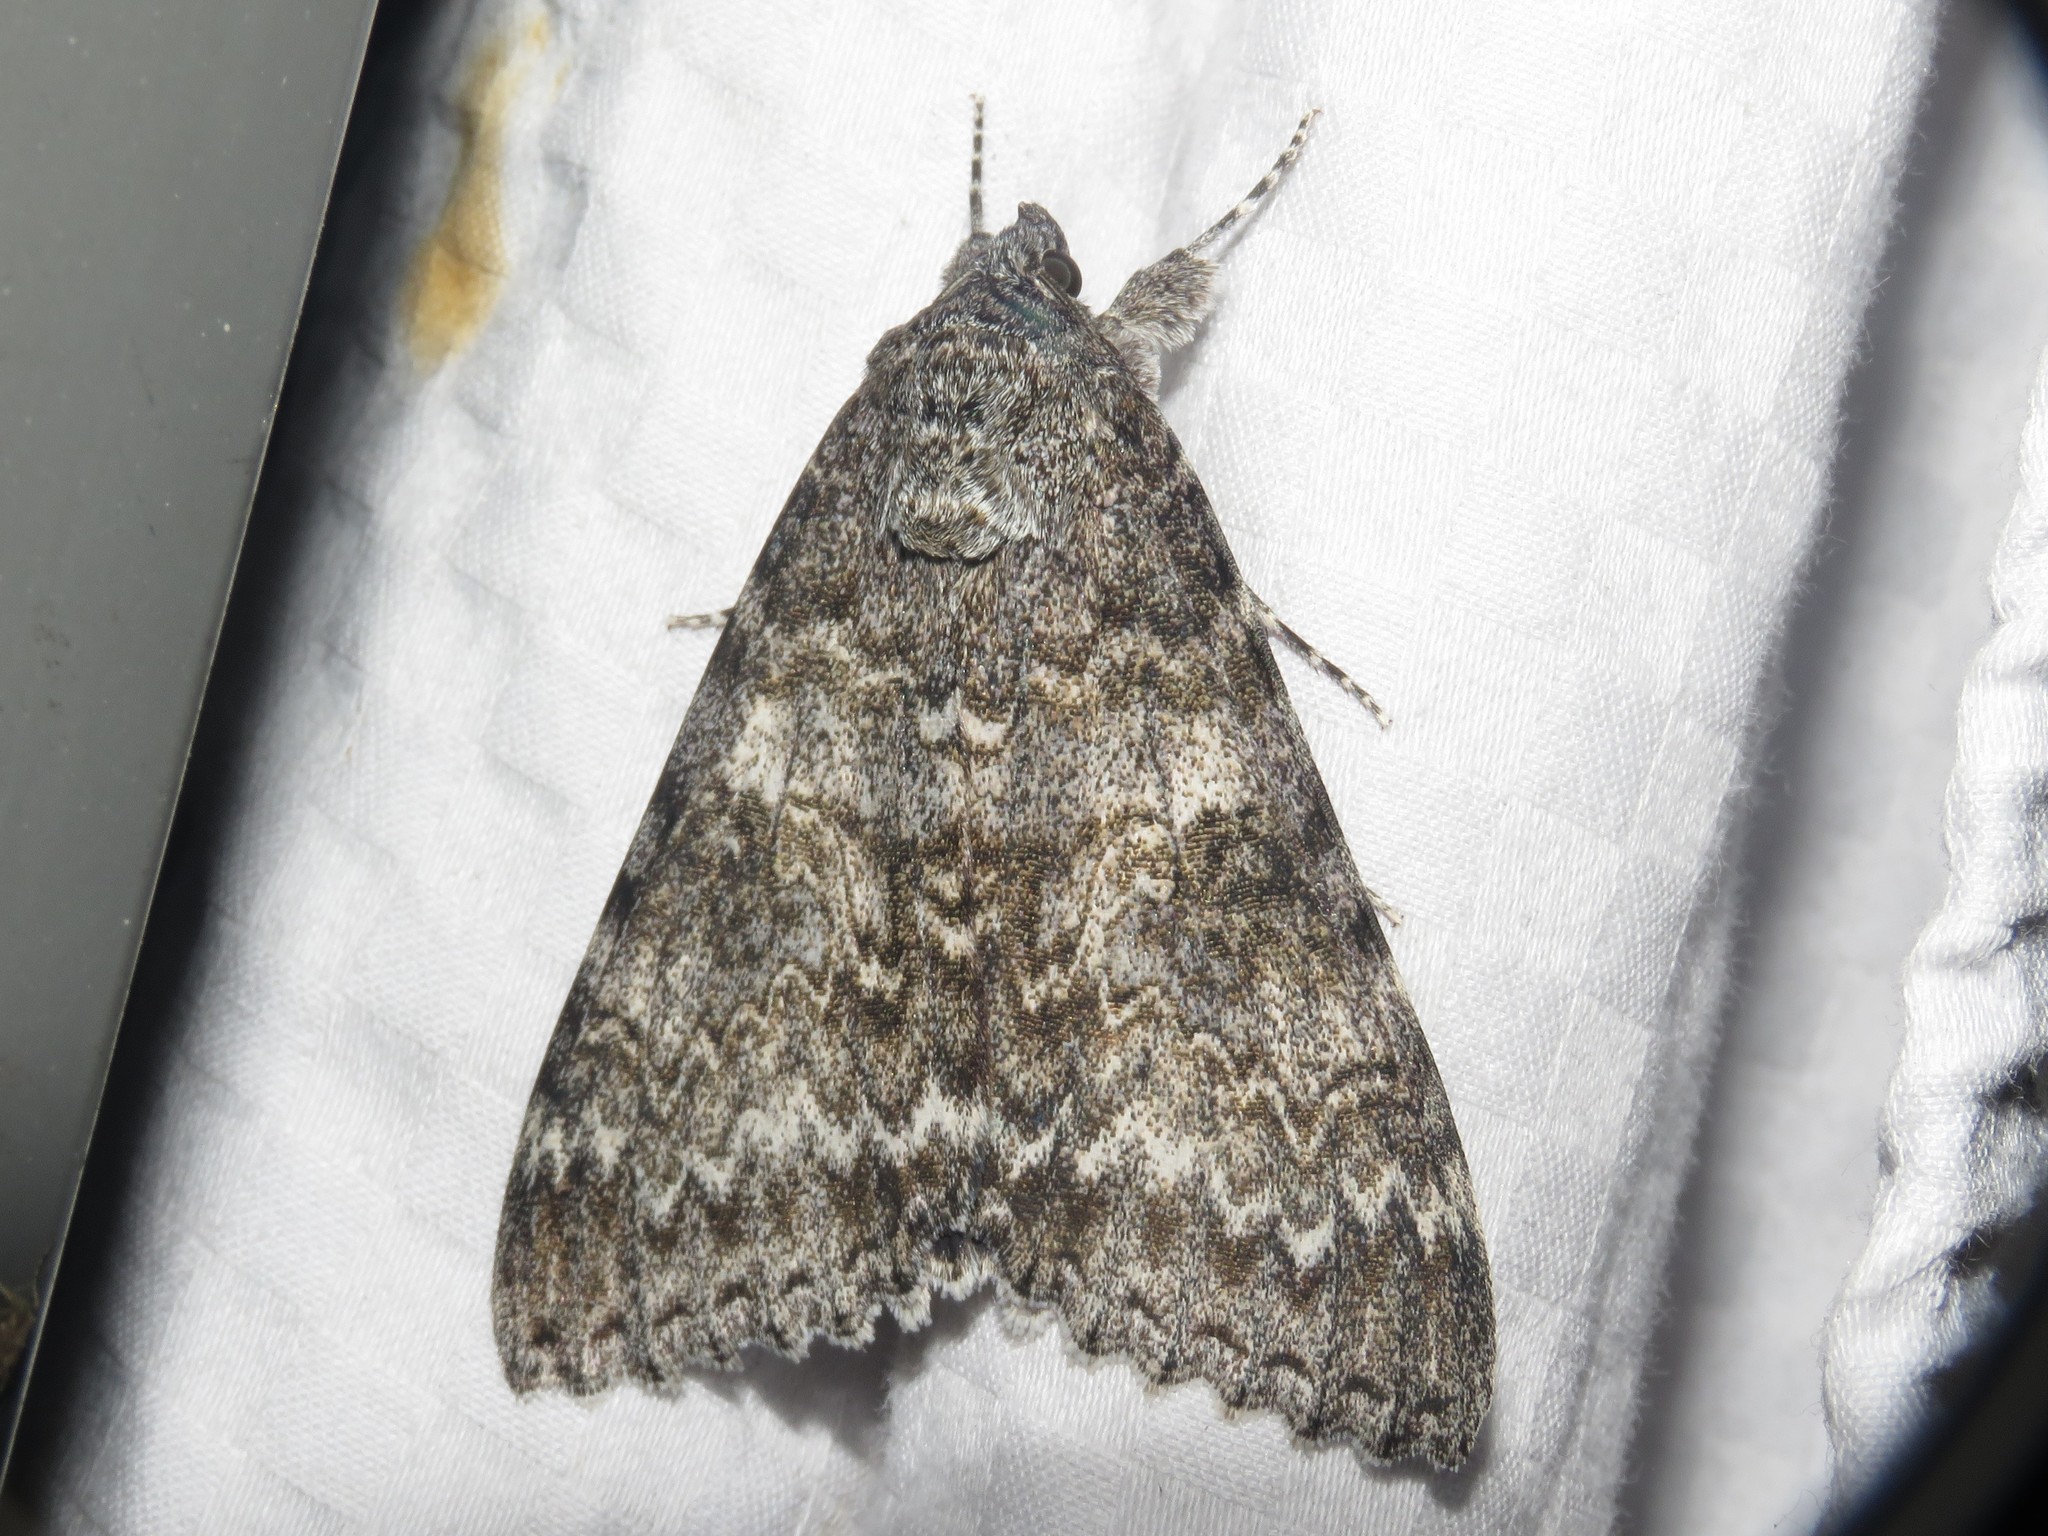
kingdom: Animalia
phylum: Arthropoda
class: Insecta
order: Lepidoptera
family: Erebidae
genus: Catocala
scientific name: Catocala unijuga
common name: Once-married underwing
